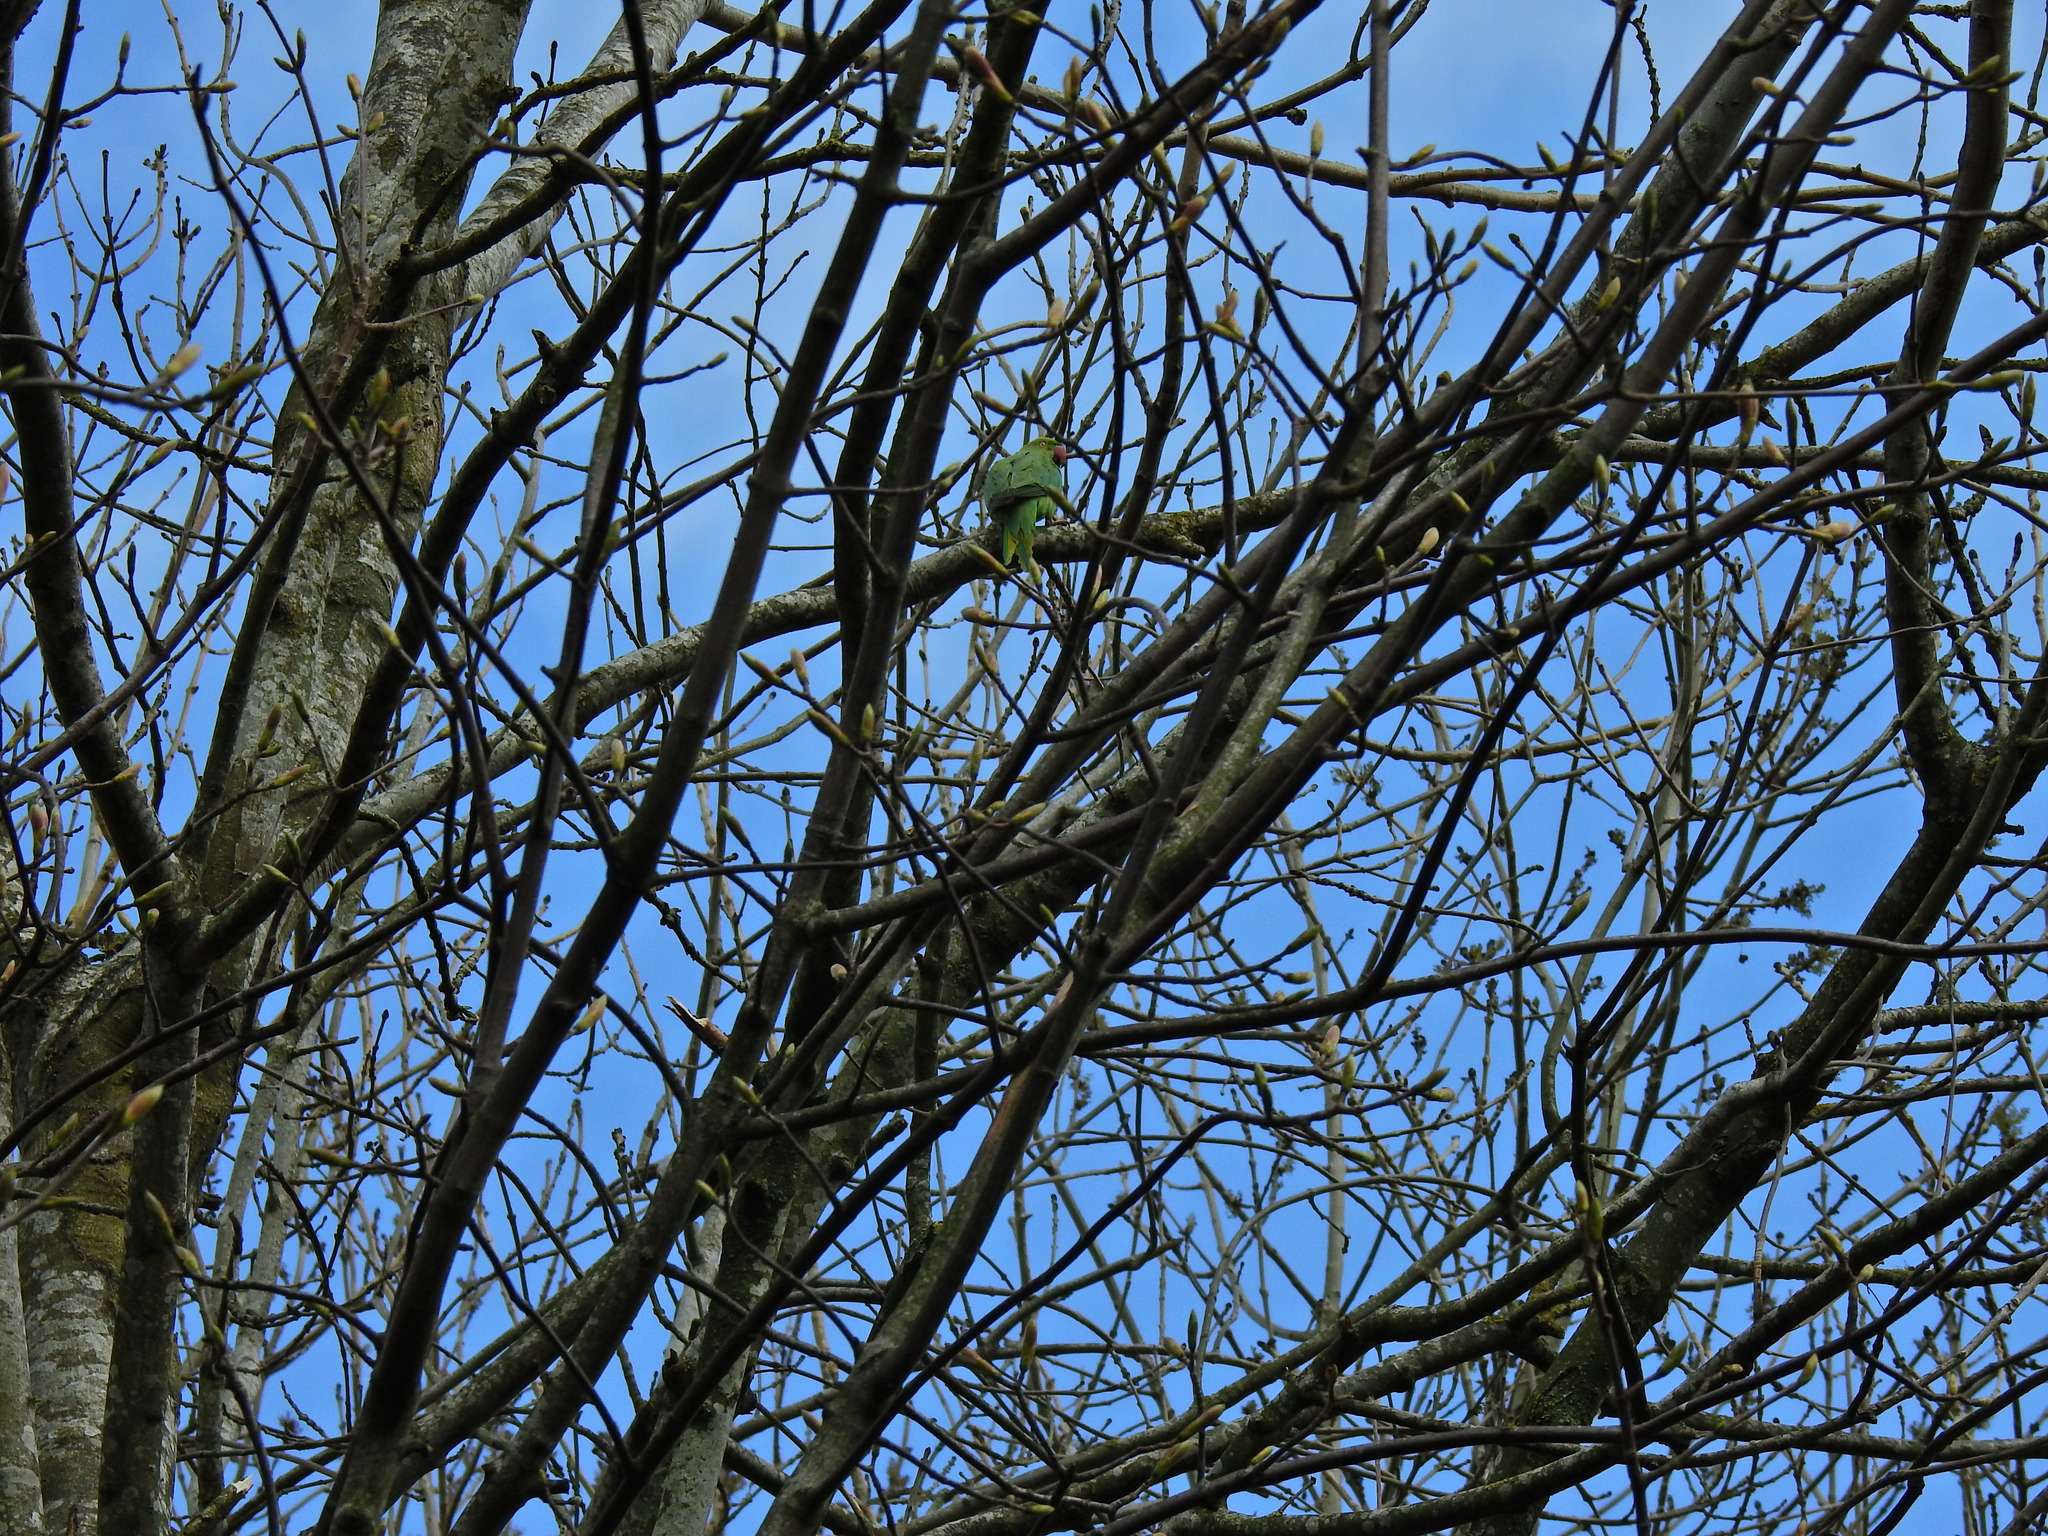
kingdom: Animalia
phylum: Chordata
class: Aves
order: Psittaciformes
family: Psittacidae
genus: Psittacula
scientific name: Psittacula krameri
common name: Rose-ringed parakeet
